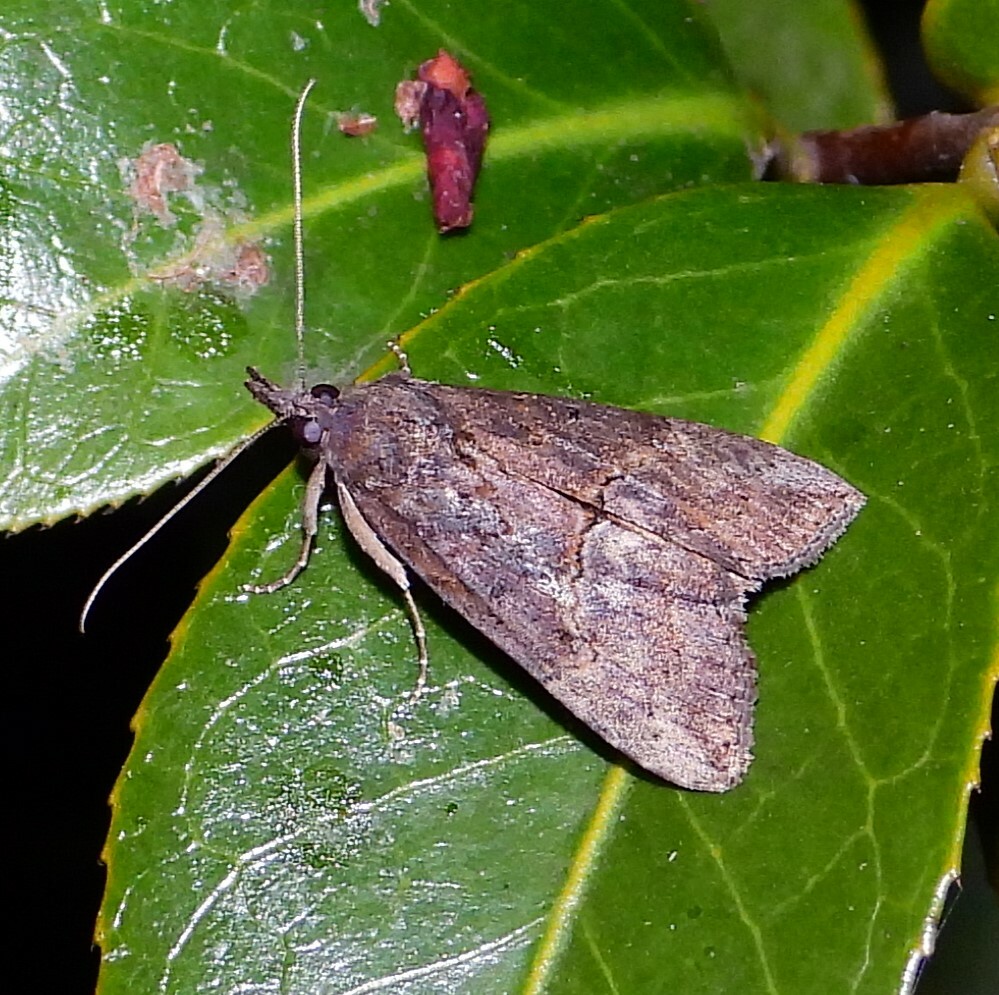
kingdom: Animalia
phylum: Arthropoda
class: Insecta
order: Lepidoptera
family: Erebidae
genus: Hypena
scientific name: Hypena scabra
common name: Green cloverworm
